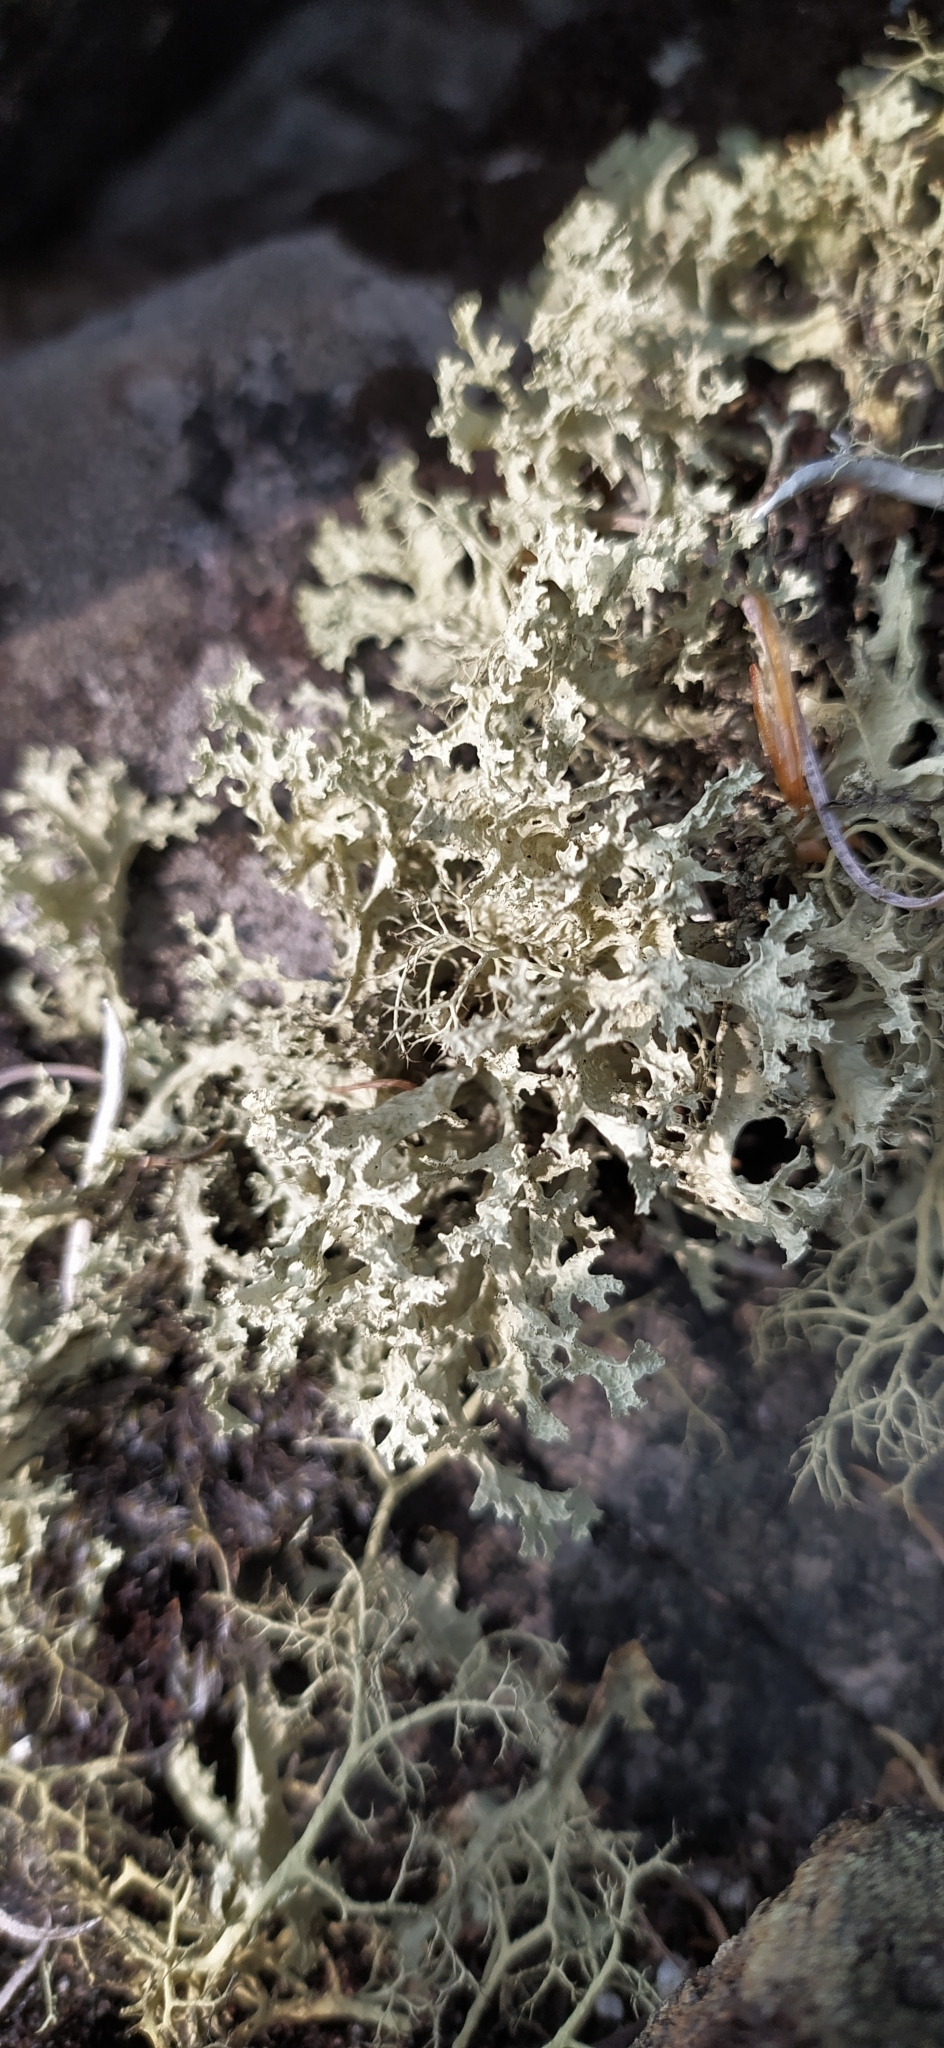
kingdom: Fungi
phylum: Ascomycota
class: Lecanoromycetes
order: Lecanorales
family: Parmeliaceae
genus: Nephromopsis
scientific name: Nephromopsis nivalis
